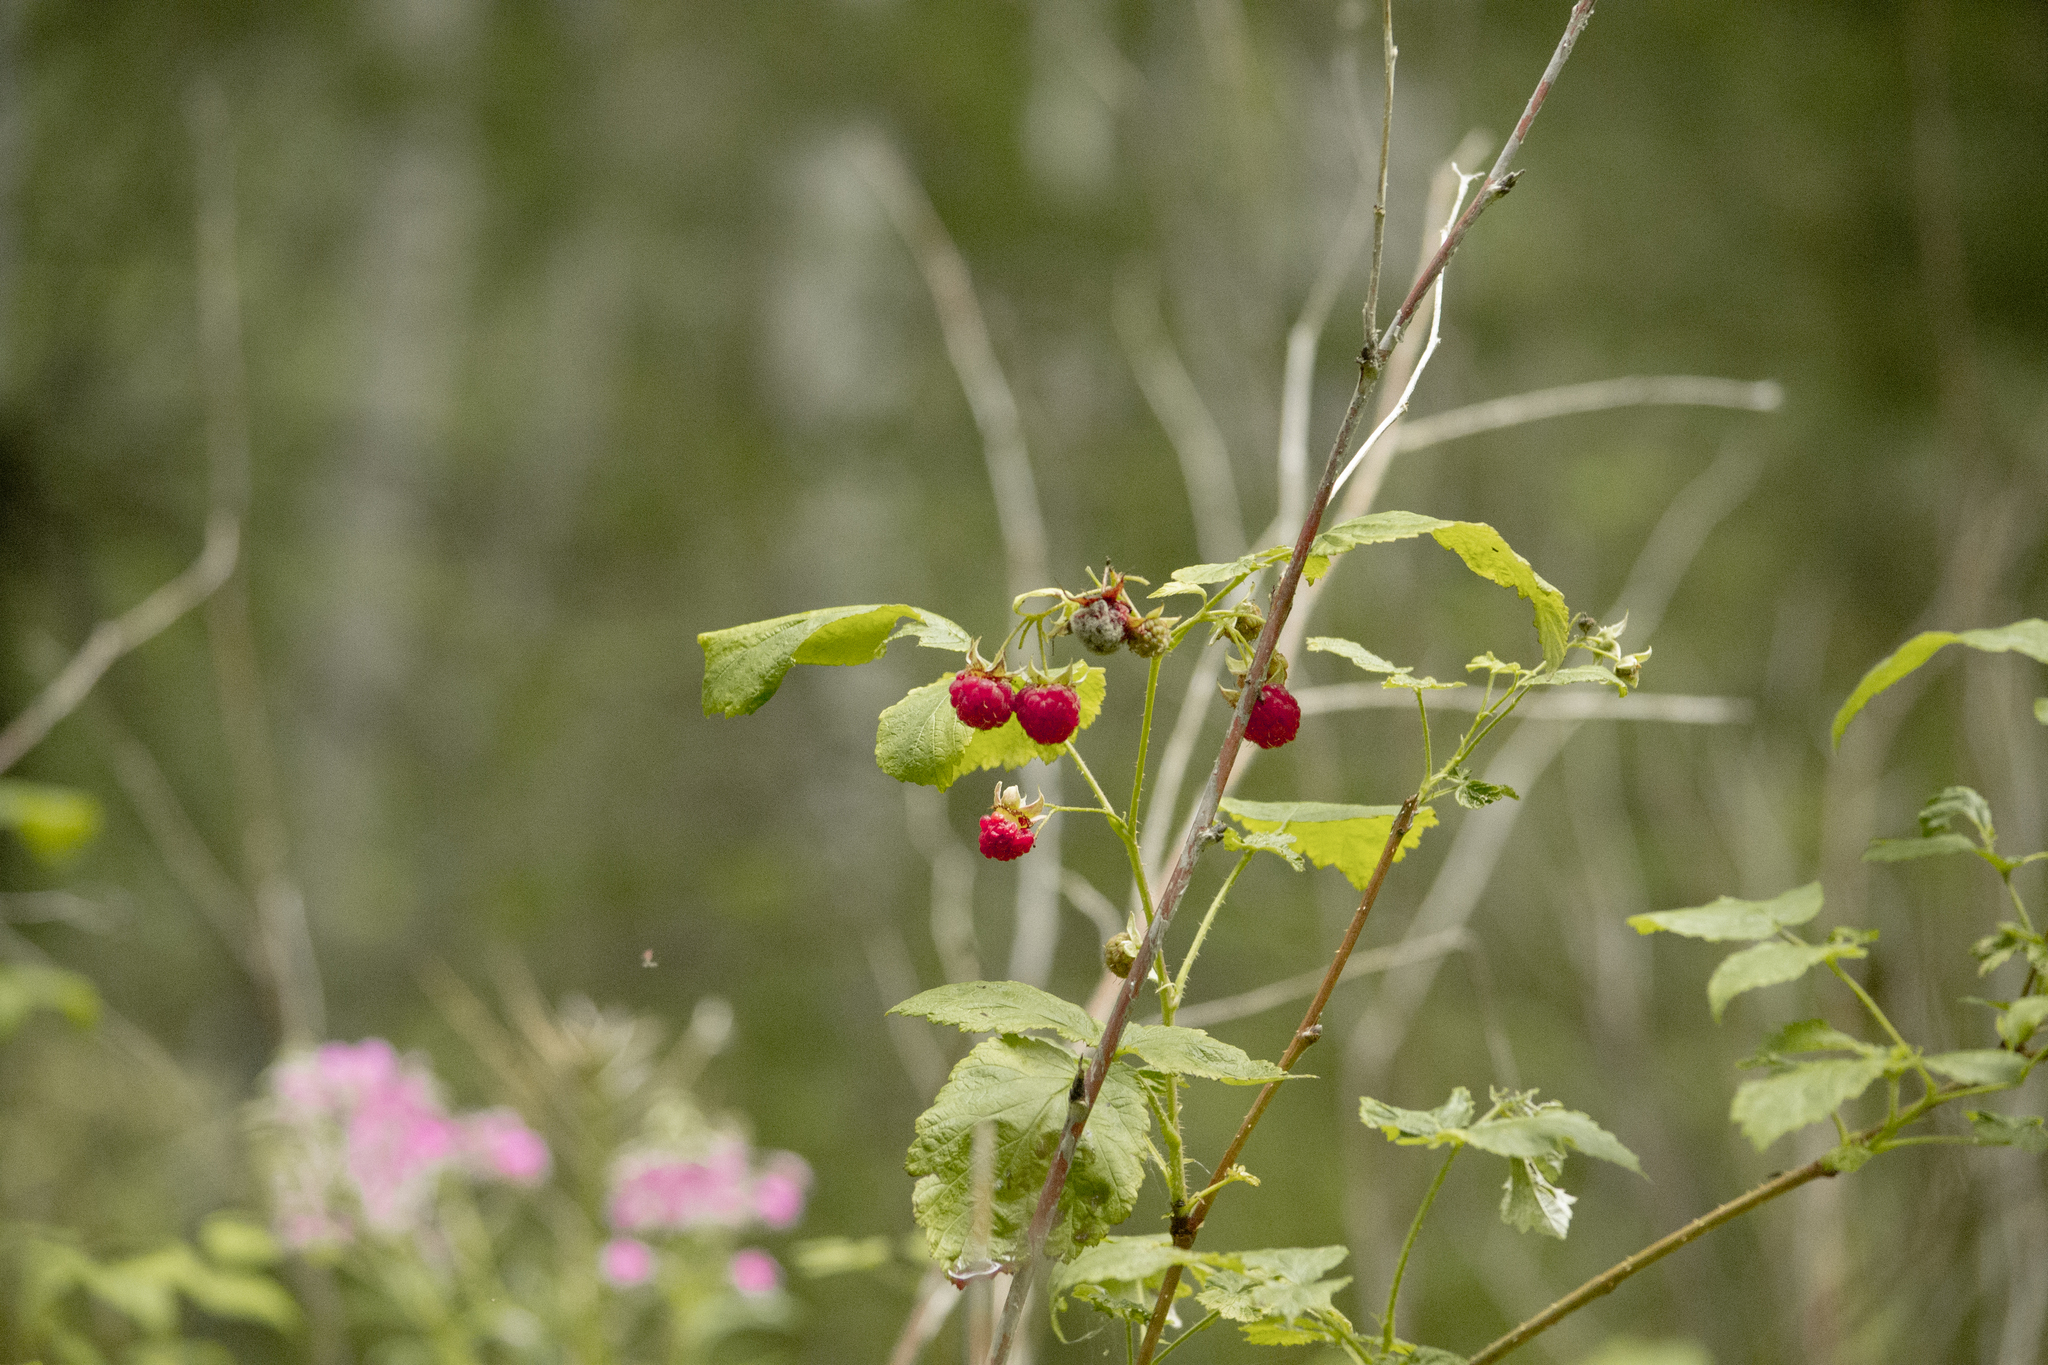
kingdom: Plantae
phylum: Tracheophyta
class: Magnoliopsida
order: Rosales
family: Rosaceae
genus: Rubus
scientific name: Rubus idaeus
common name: Raspberry
